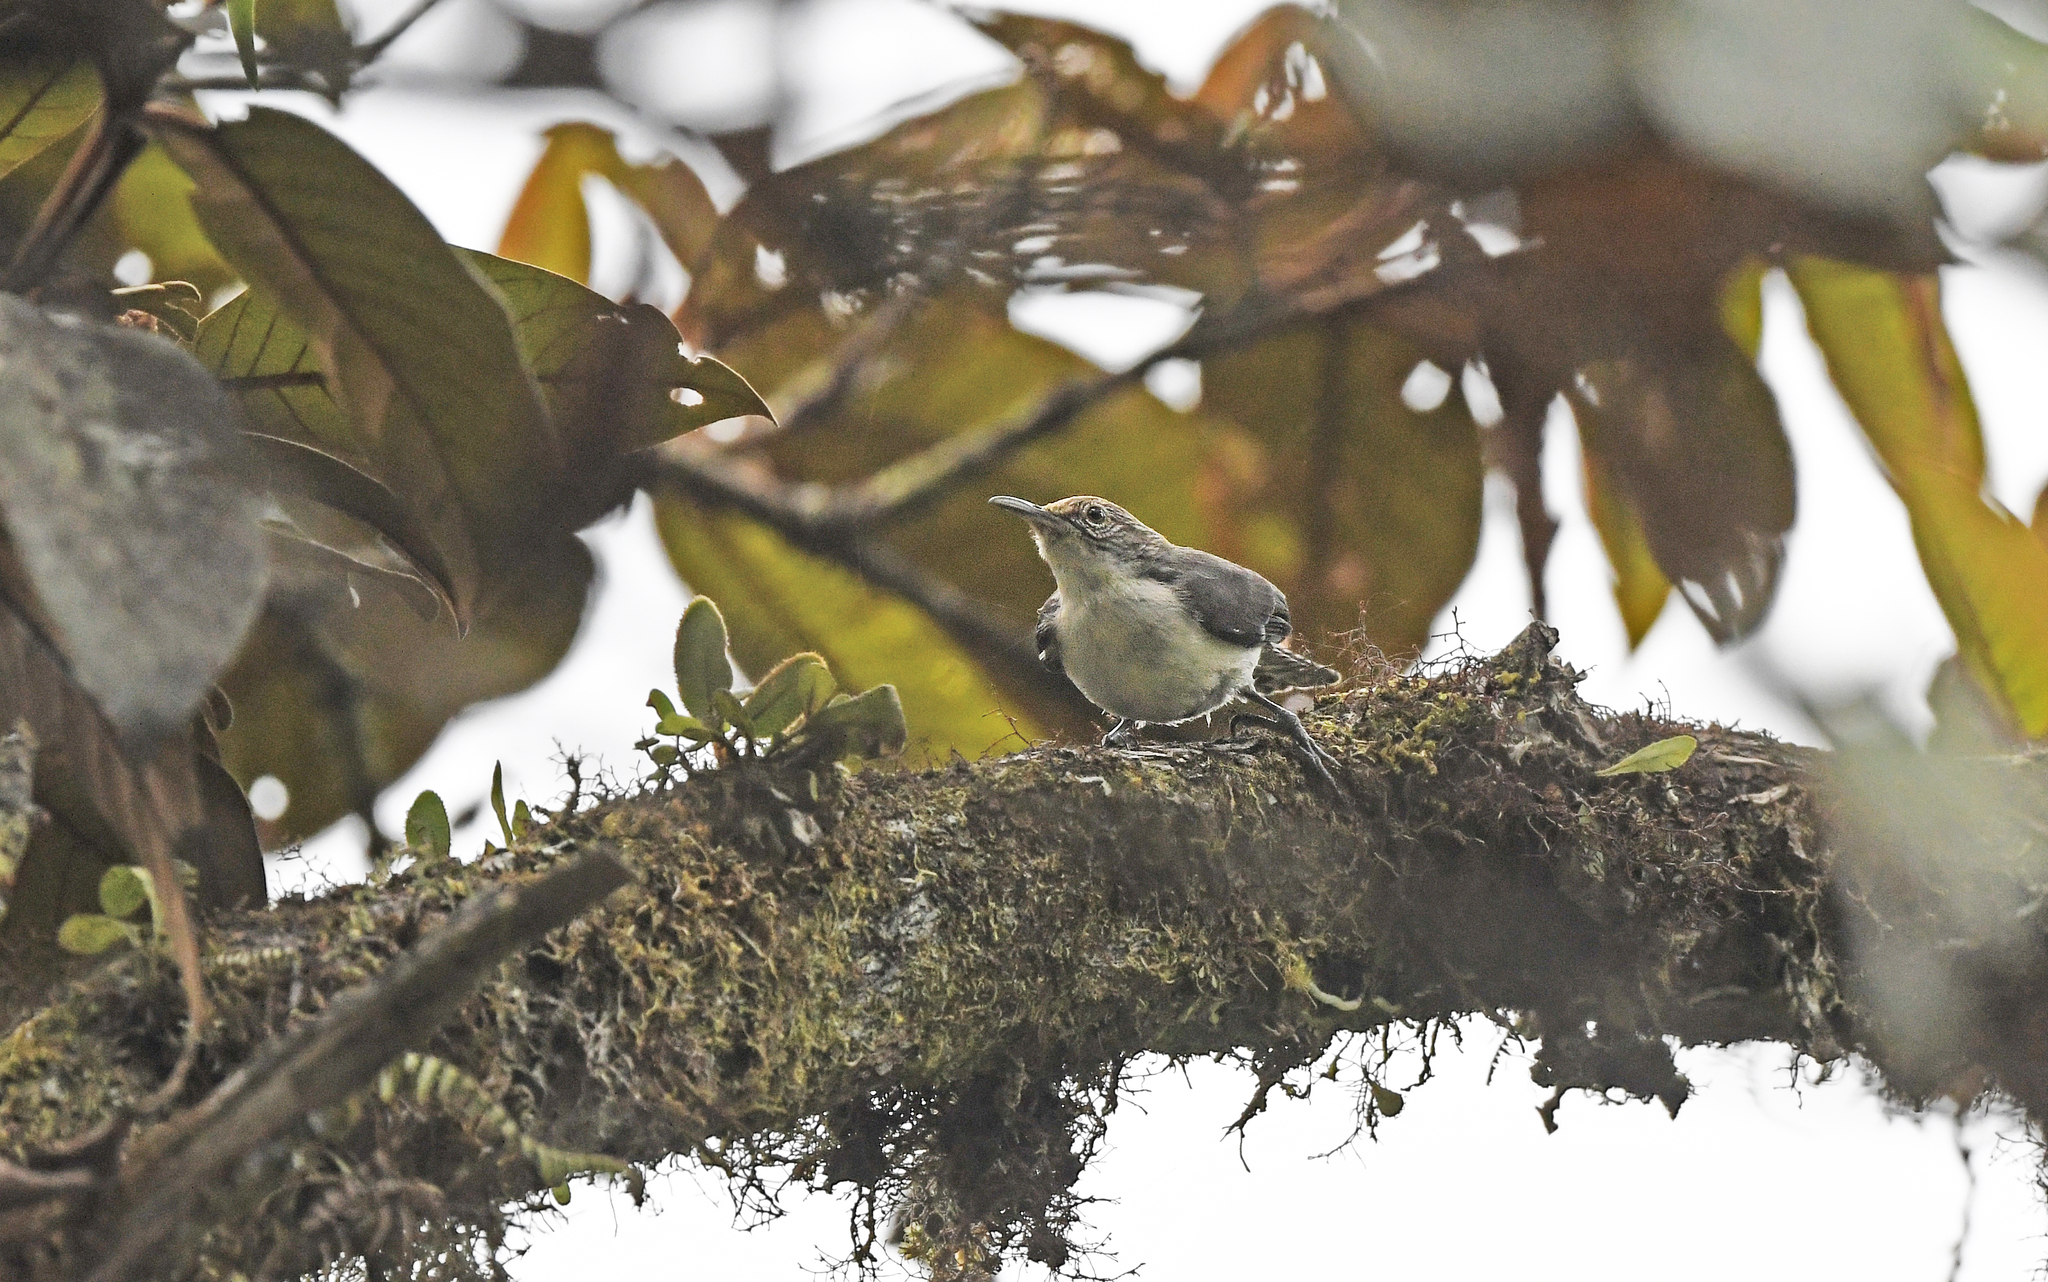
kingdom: Animalia
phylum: Chordata
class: Aves
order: Passeriformes
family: Troglodytidae
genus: Odontorchilus
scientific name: Odontorchilus branickii
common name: Grey-mantled wren
